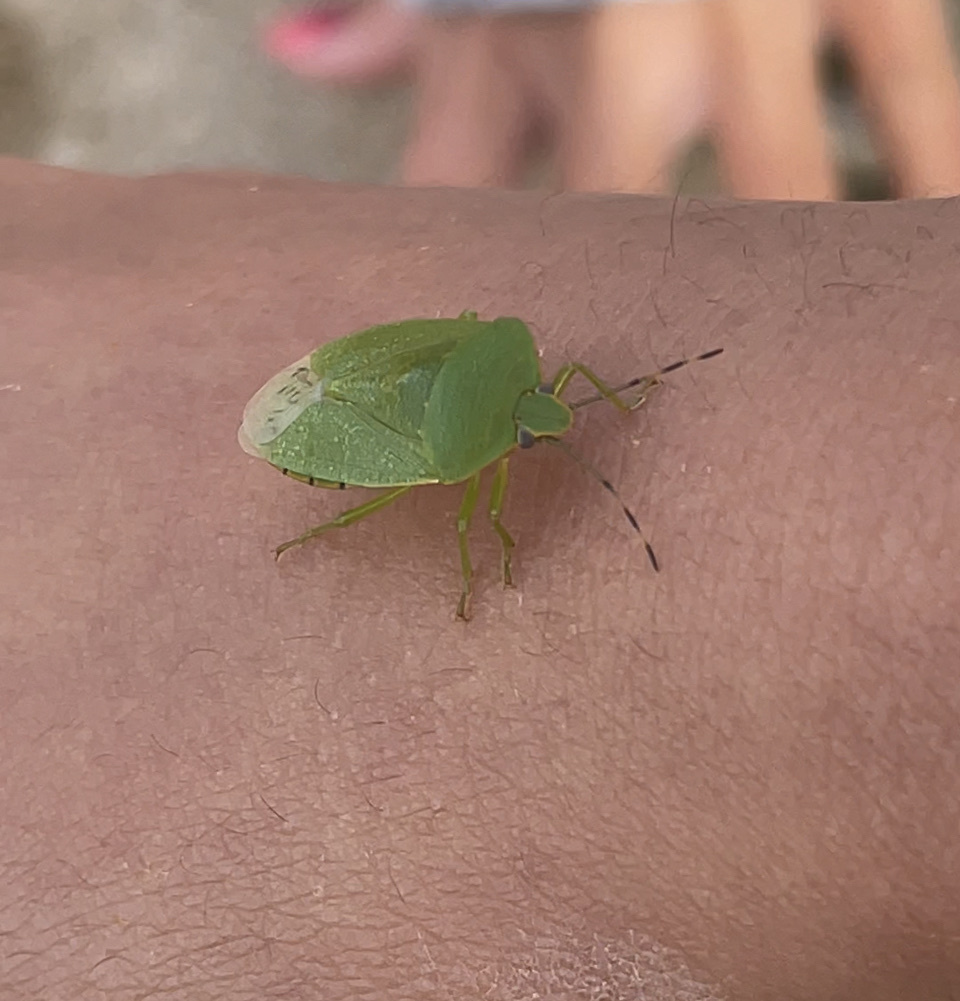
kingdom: Animalia
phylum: Arthropoda
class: Insecta
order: Hemiptera
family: Pentatomidae
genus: Chinavia
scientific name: Chinavia hilaris
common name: Green stink bug
